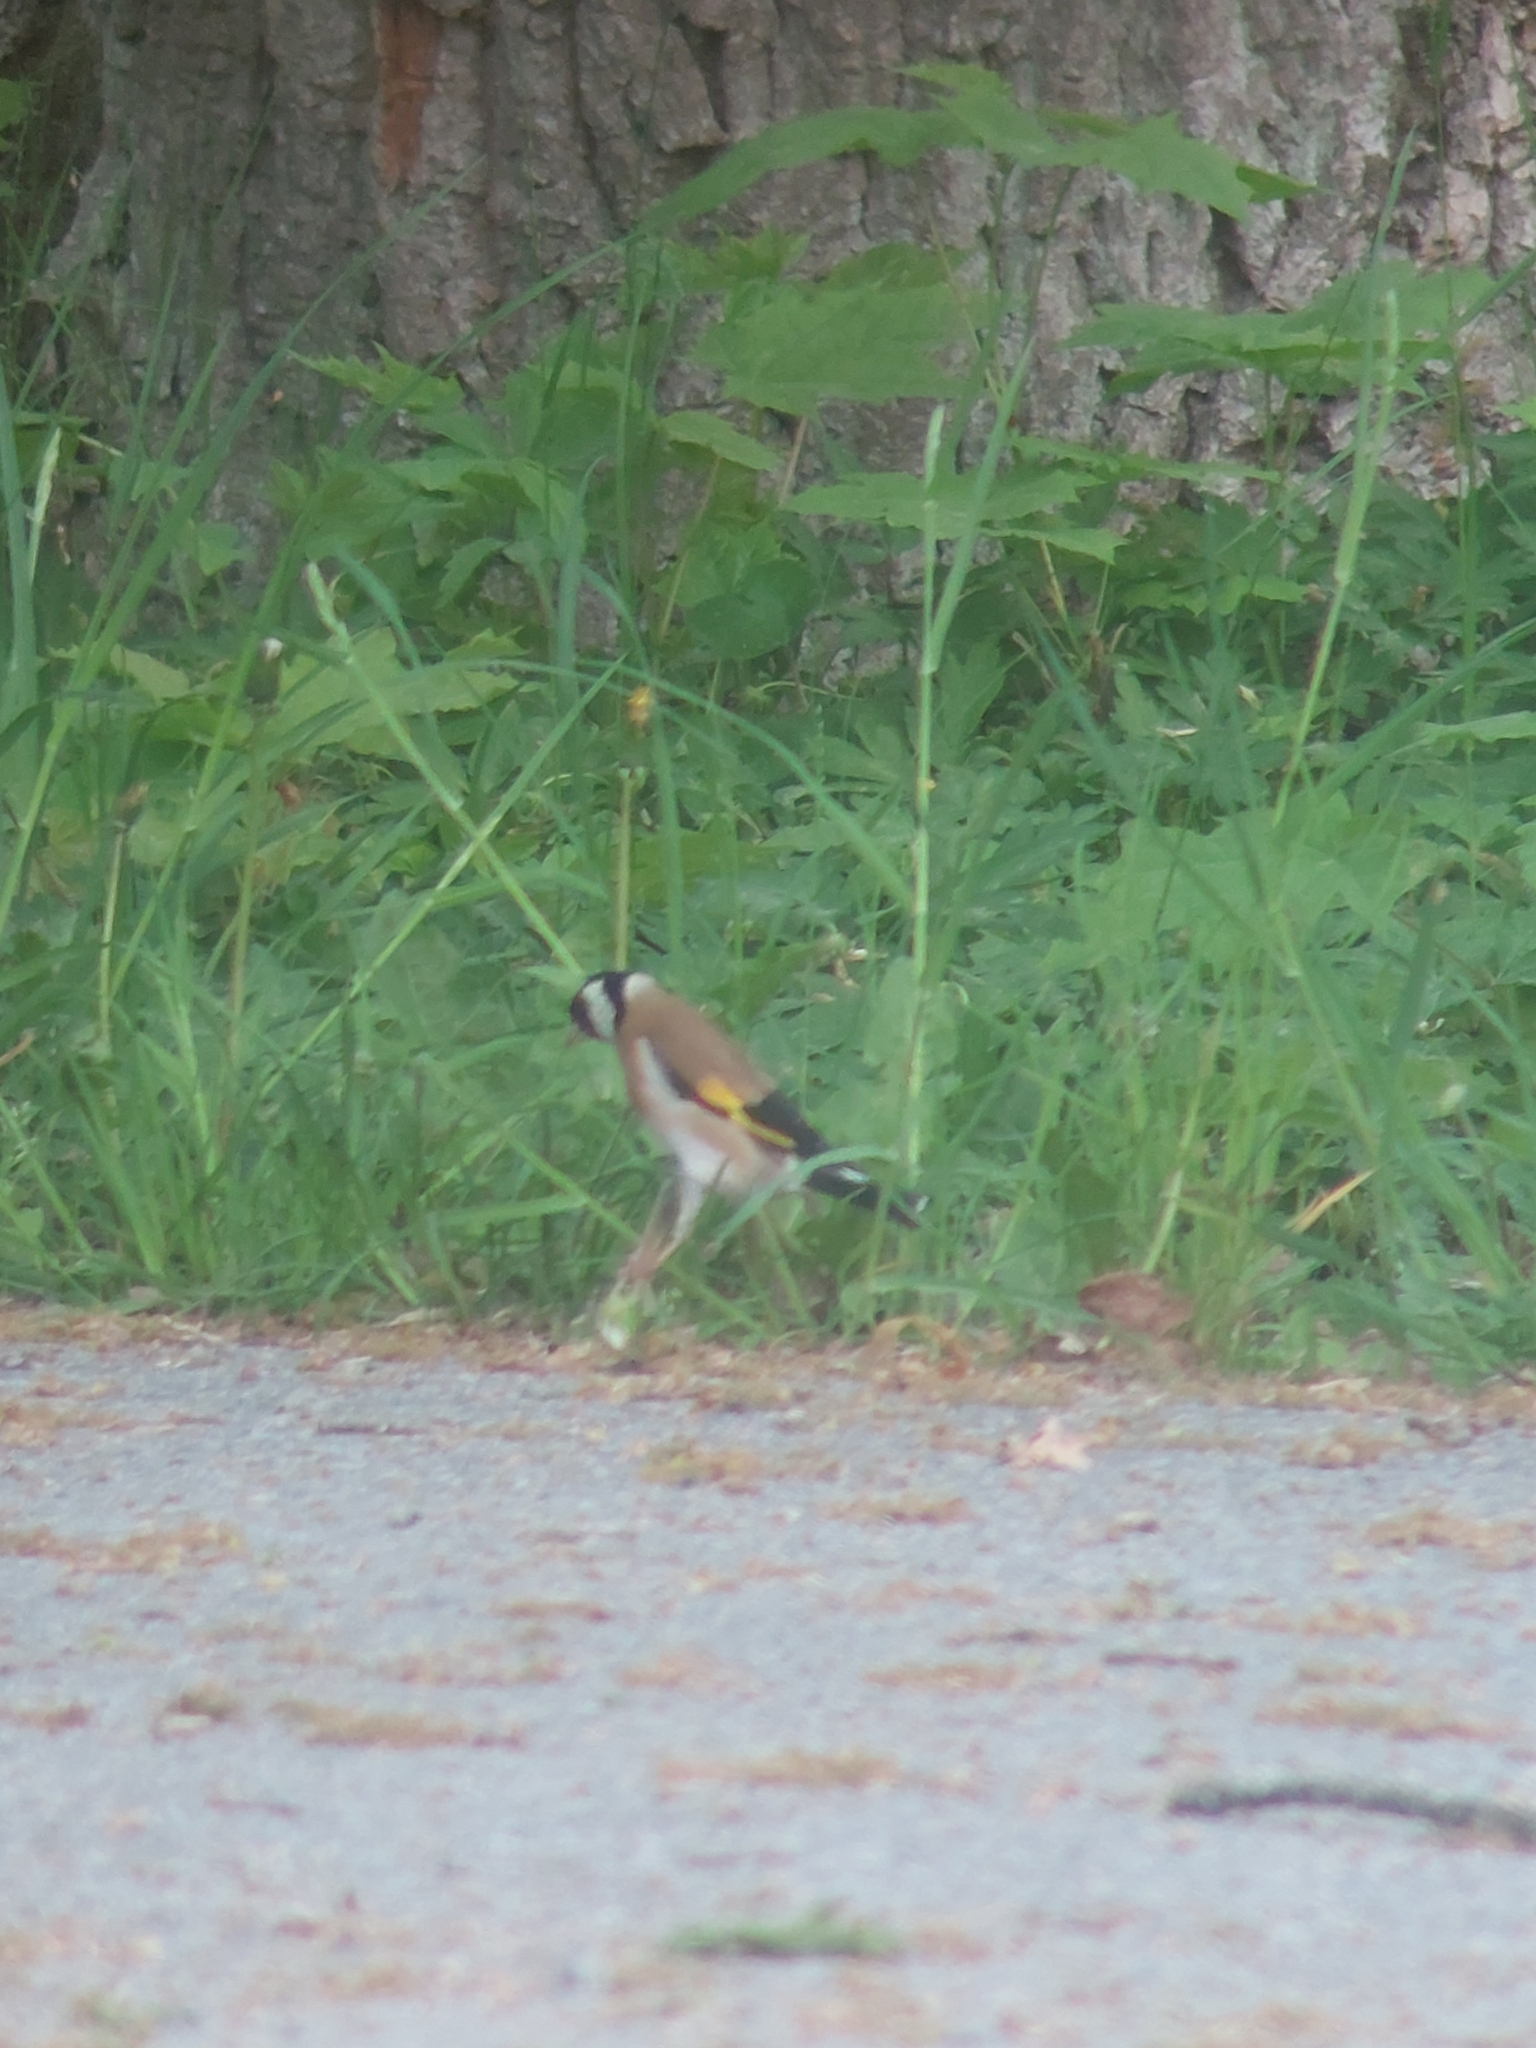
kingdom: Animalia
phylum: Chordata
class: Aves
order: Passeriformes
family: Fringillidae
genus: Carduelis
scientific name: Carduelis carduelis
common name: European goldfinch
